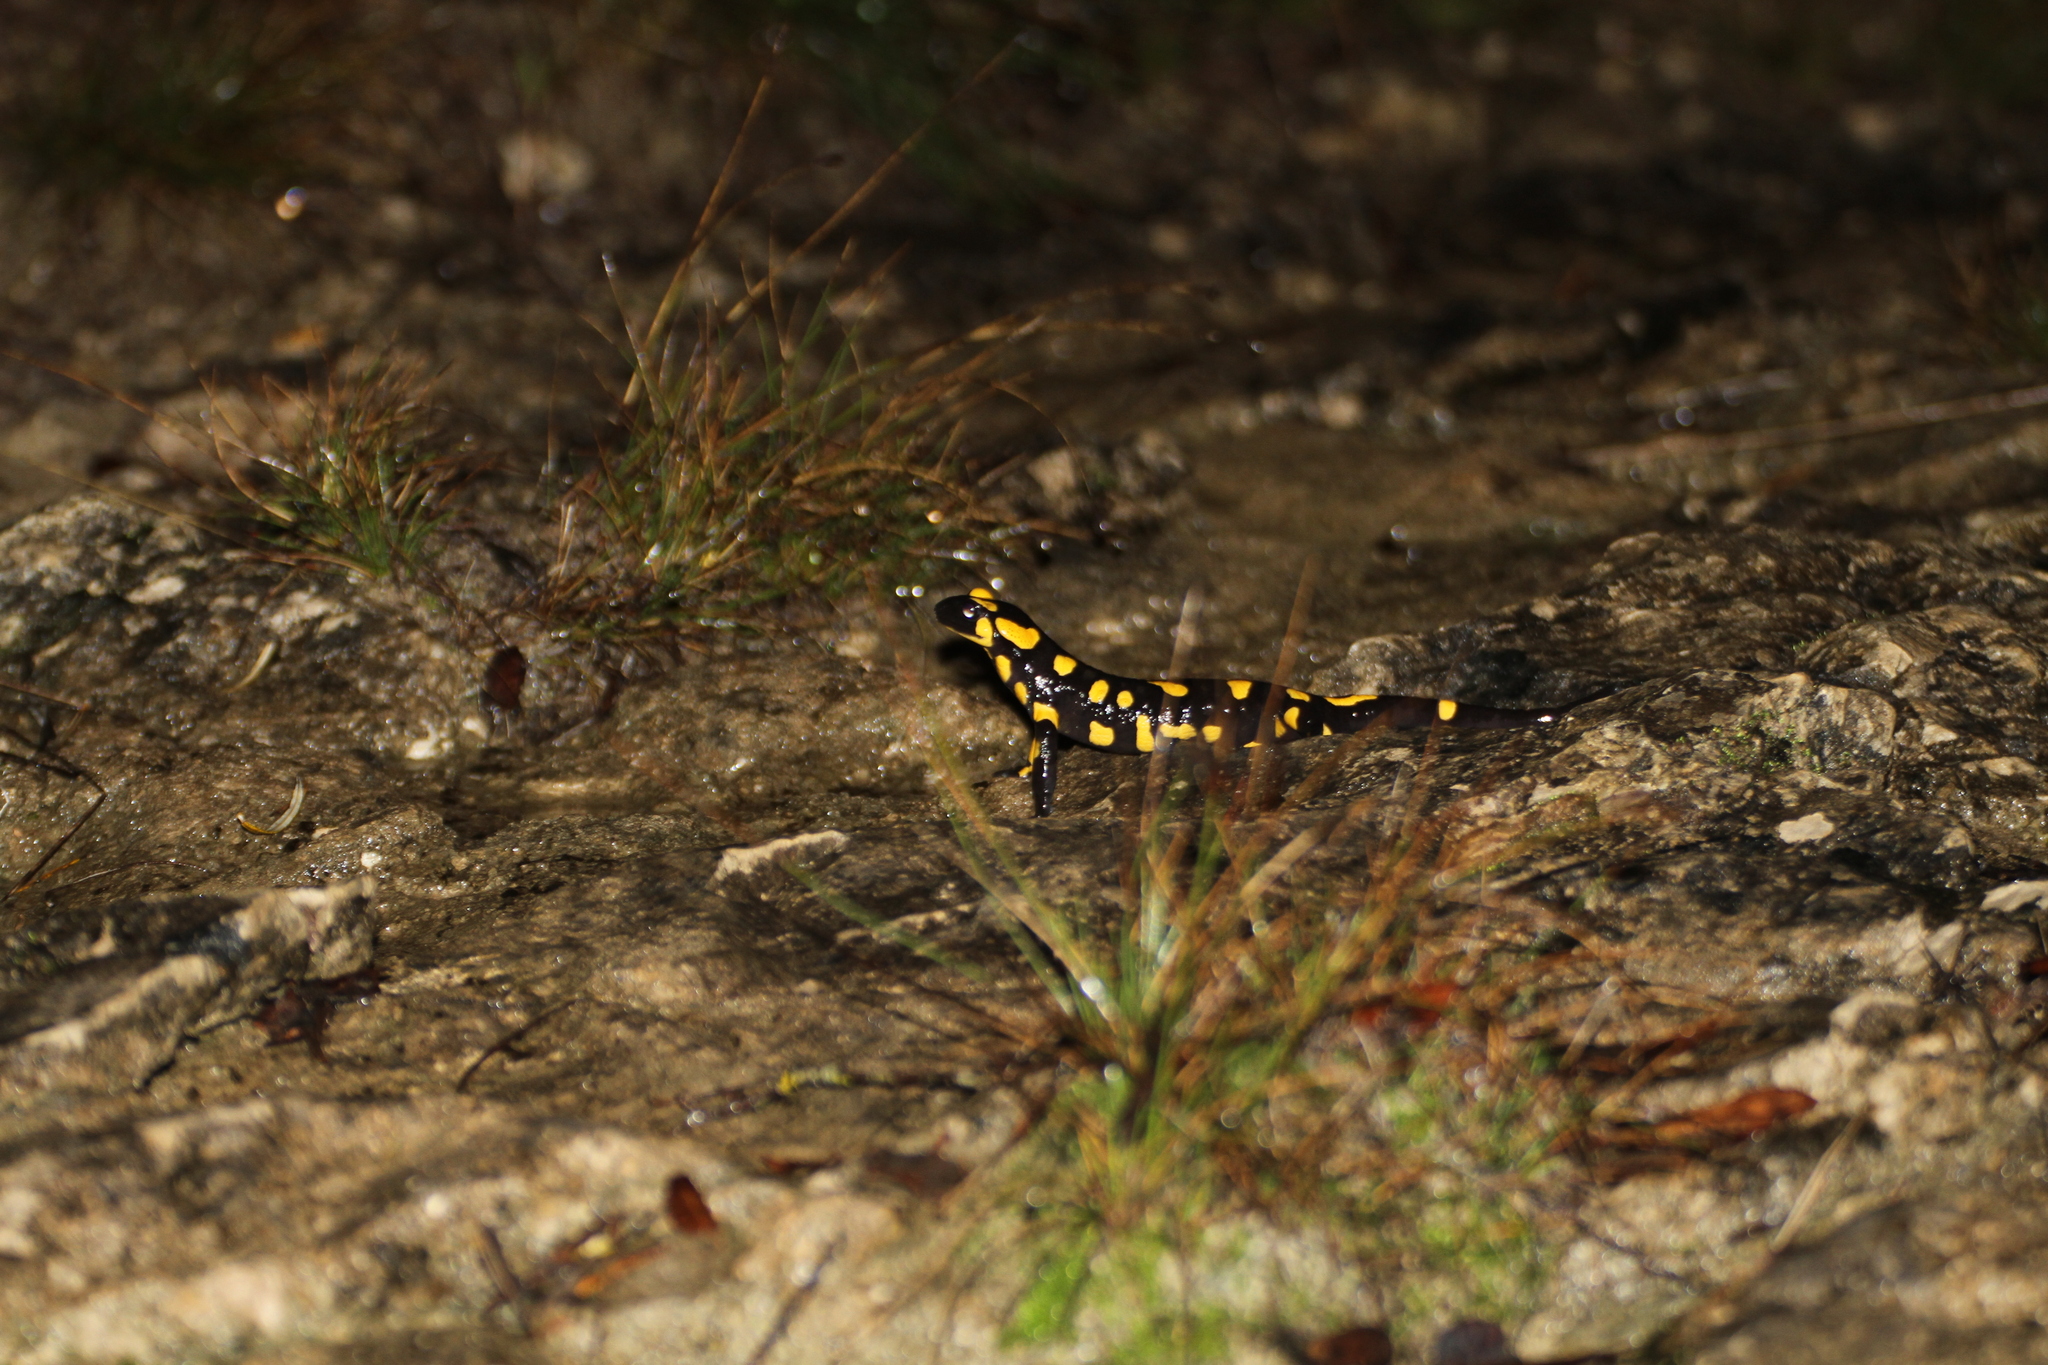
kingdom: Animalia
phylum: Chordata
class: Amphibia
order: Caudata
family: Salamandridae
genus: Salamandra
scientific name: Salamandra salamandra
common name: Fire salamander
